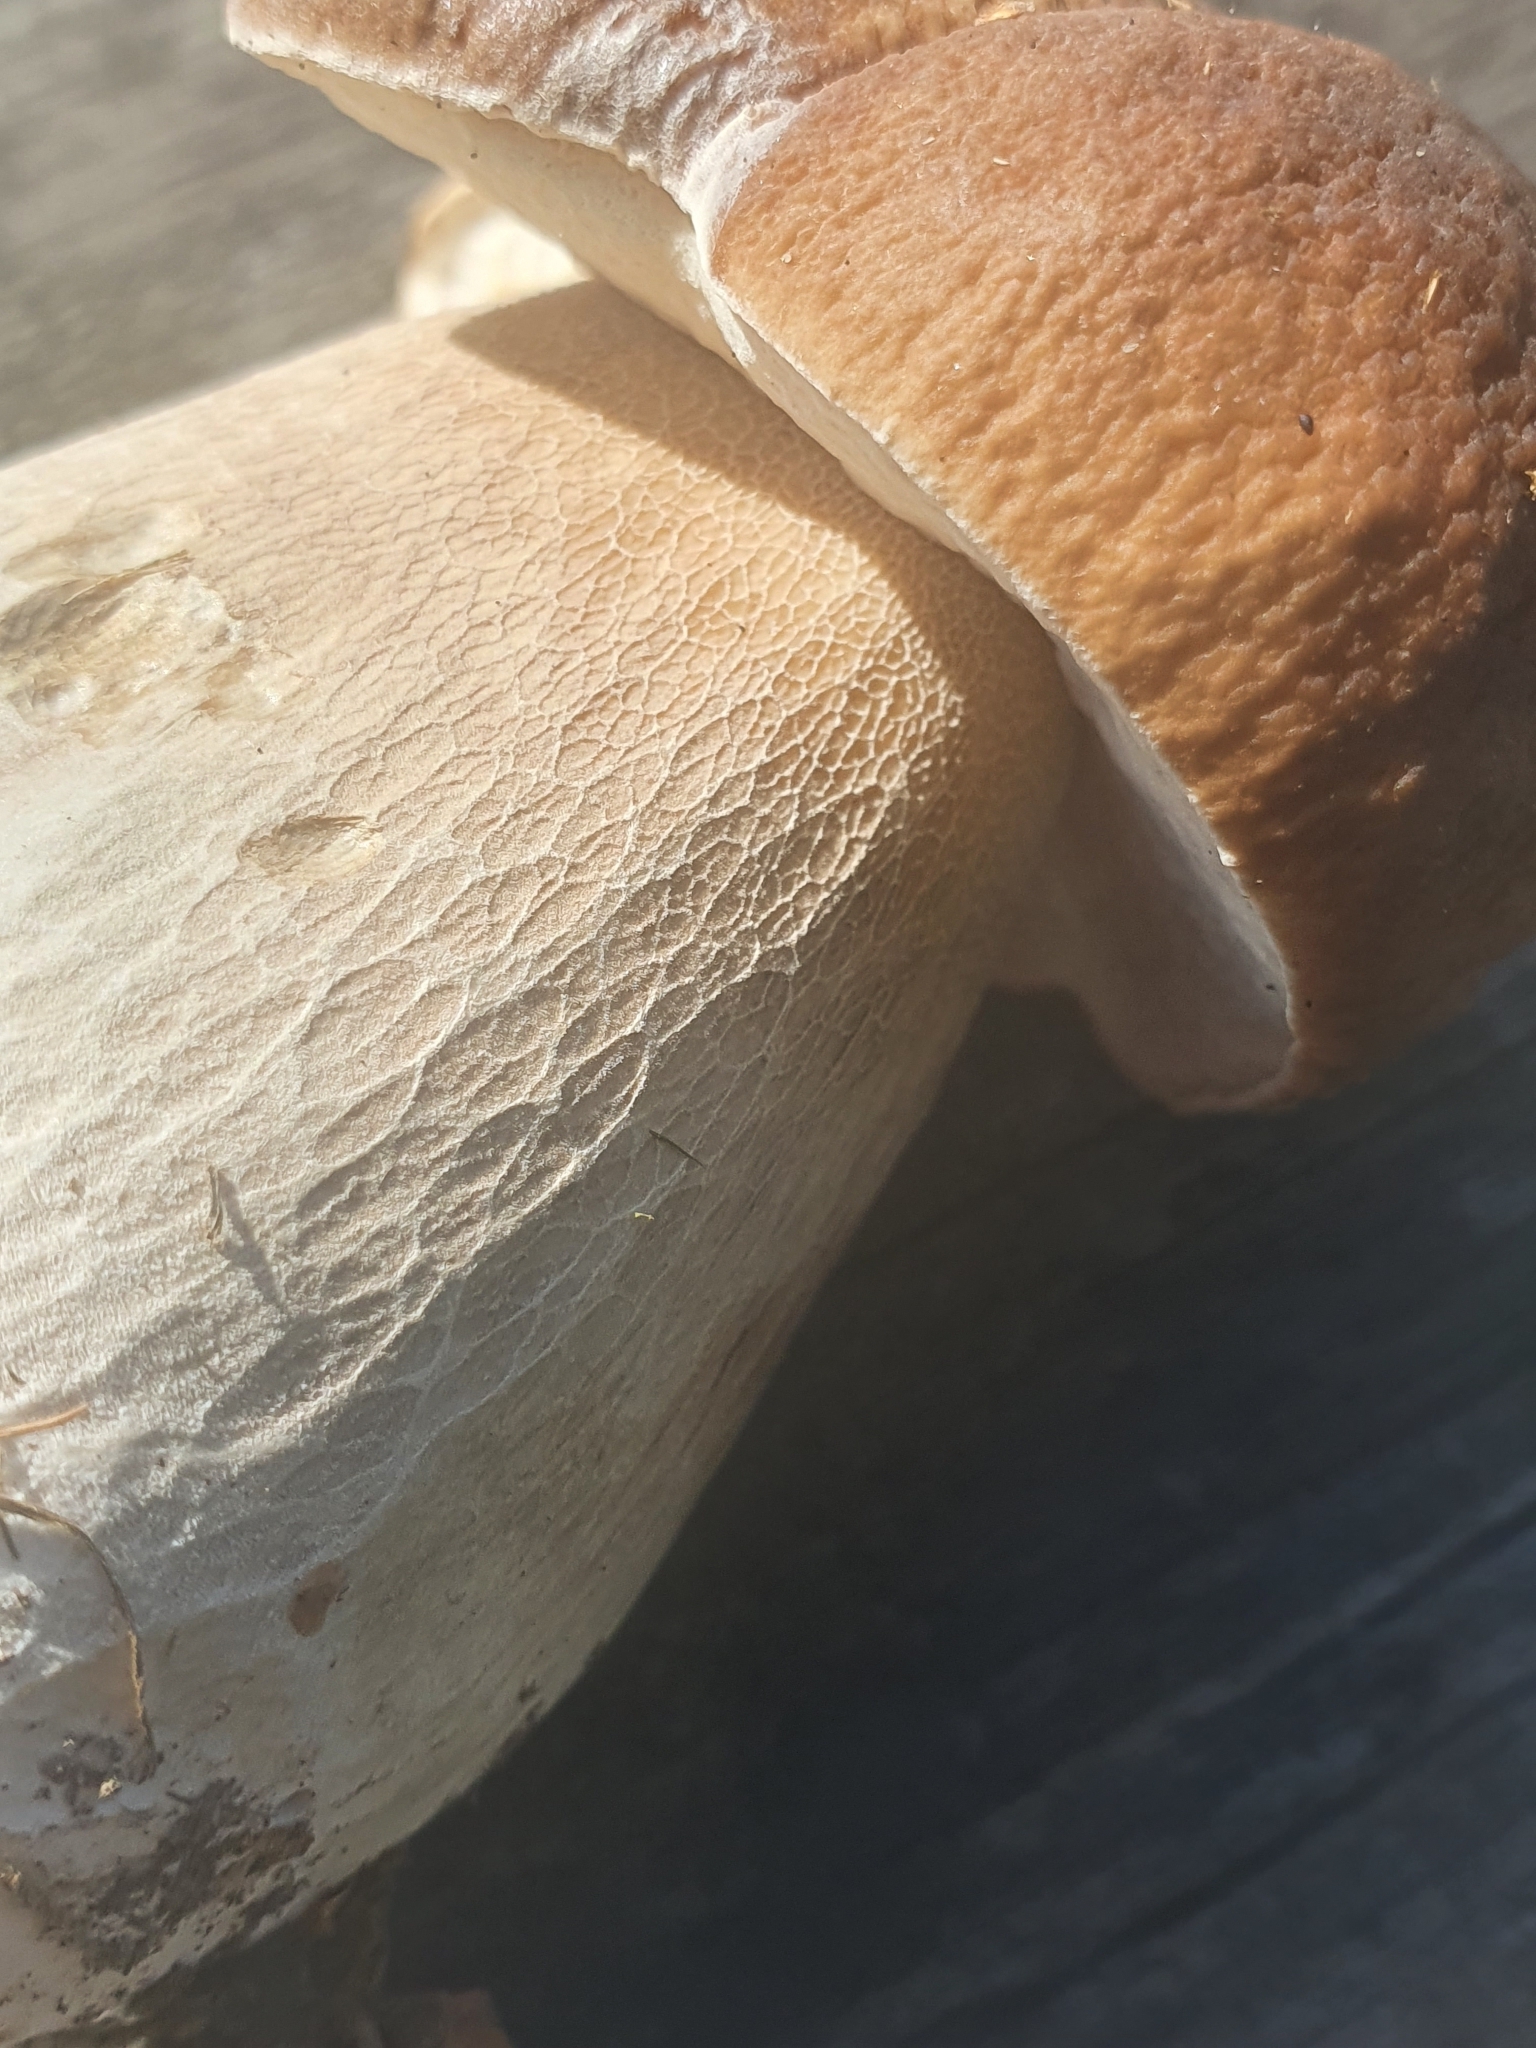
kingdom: Fungi
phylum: Basidiomycota
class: Agaricomycetes
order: Boletales
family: Boletaceae
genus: Boletus
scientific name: Boletus edulis
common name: Cep
